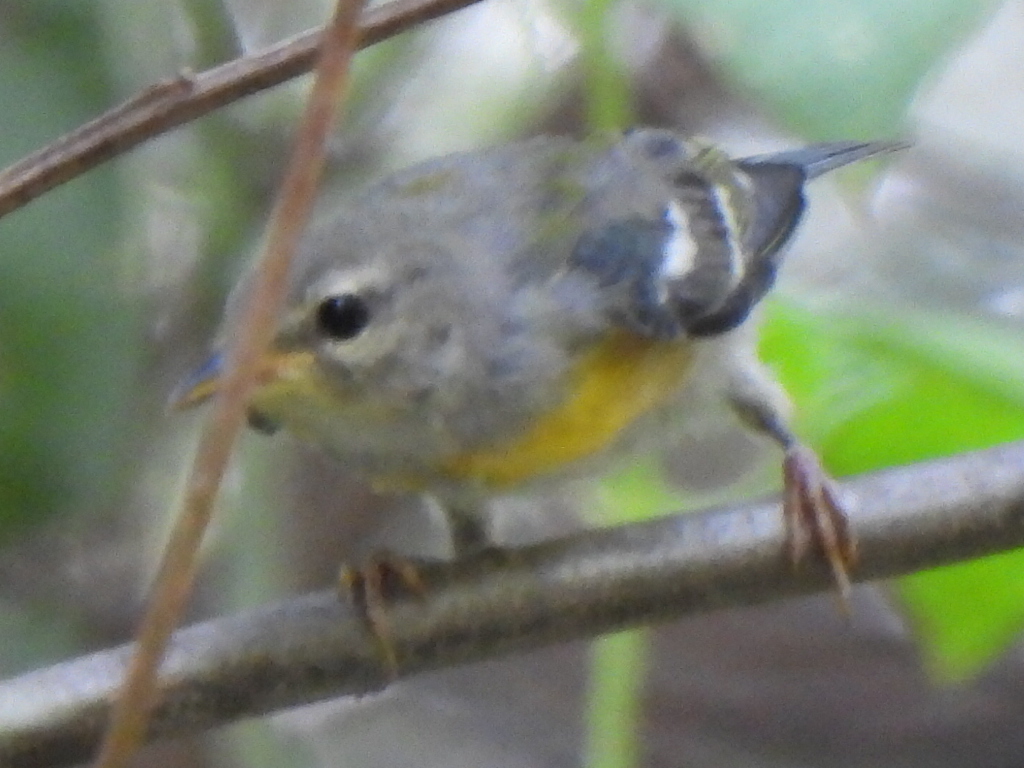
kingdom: Animalia
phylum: Chordata
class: Aves
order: Passeriformes
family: Parulidae
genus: Setophaga
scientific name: Setophaga americana
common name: Northern parula
